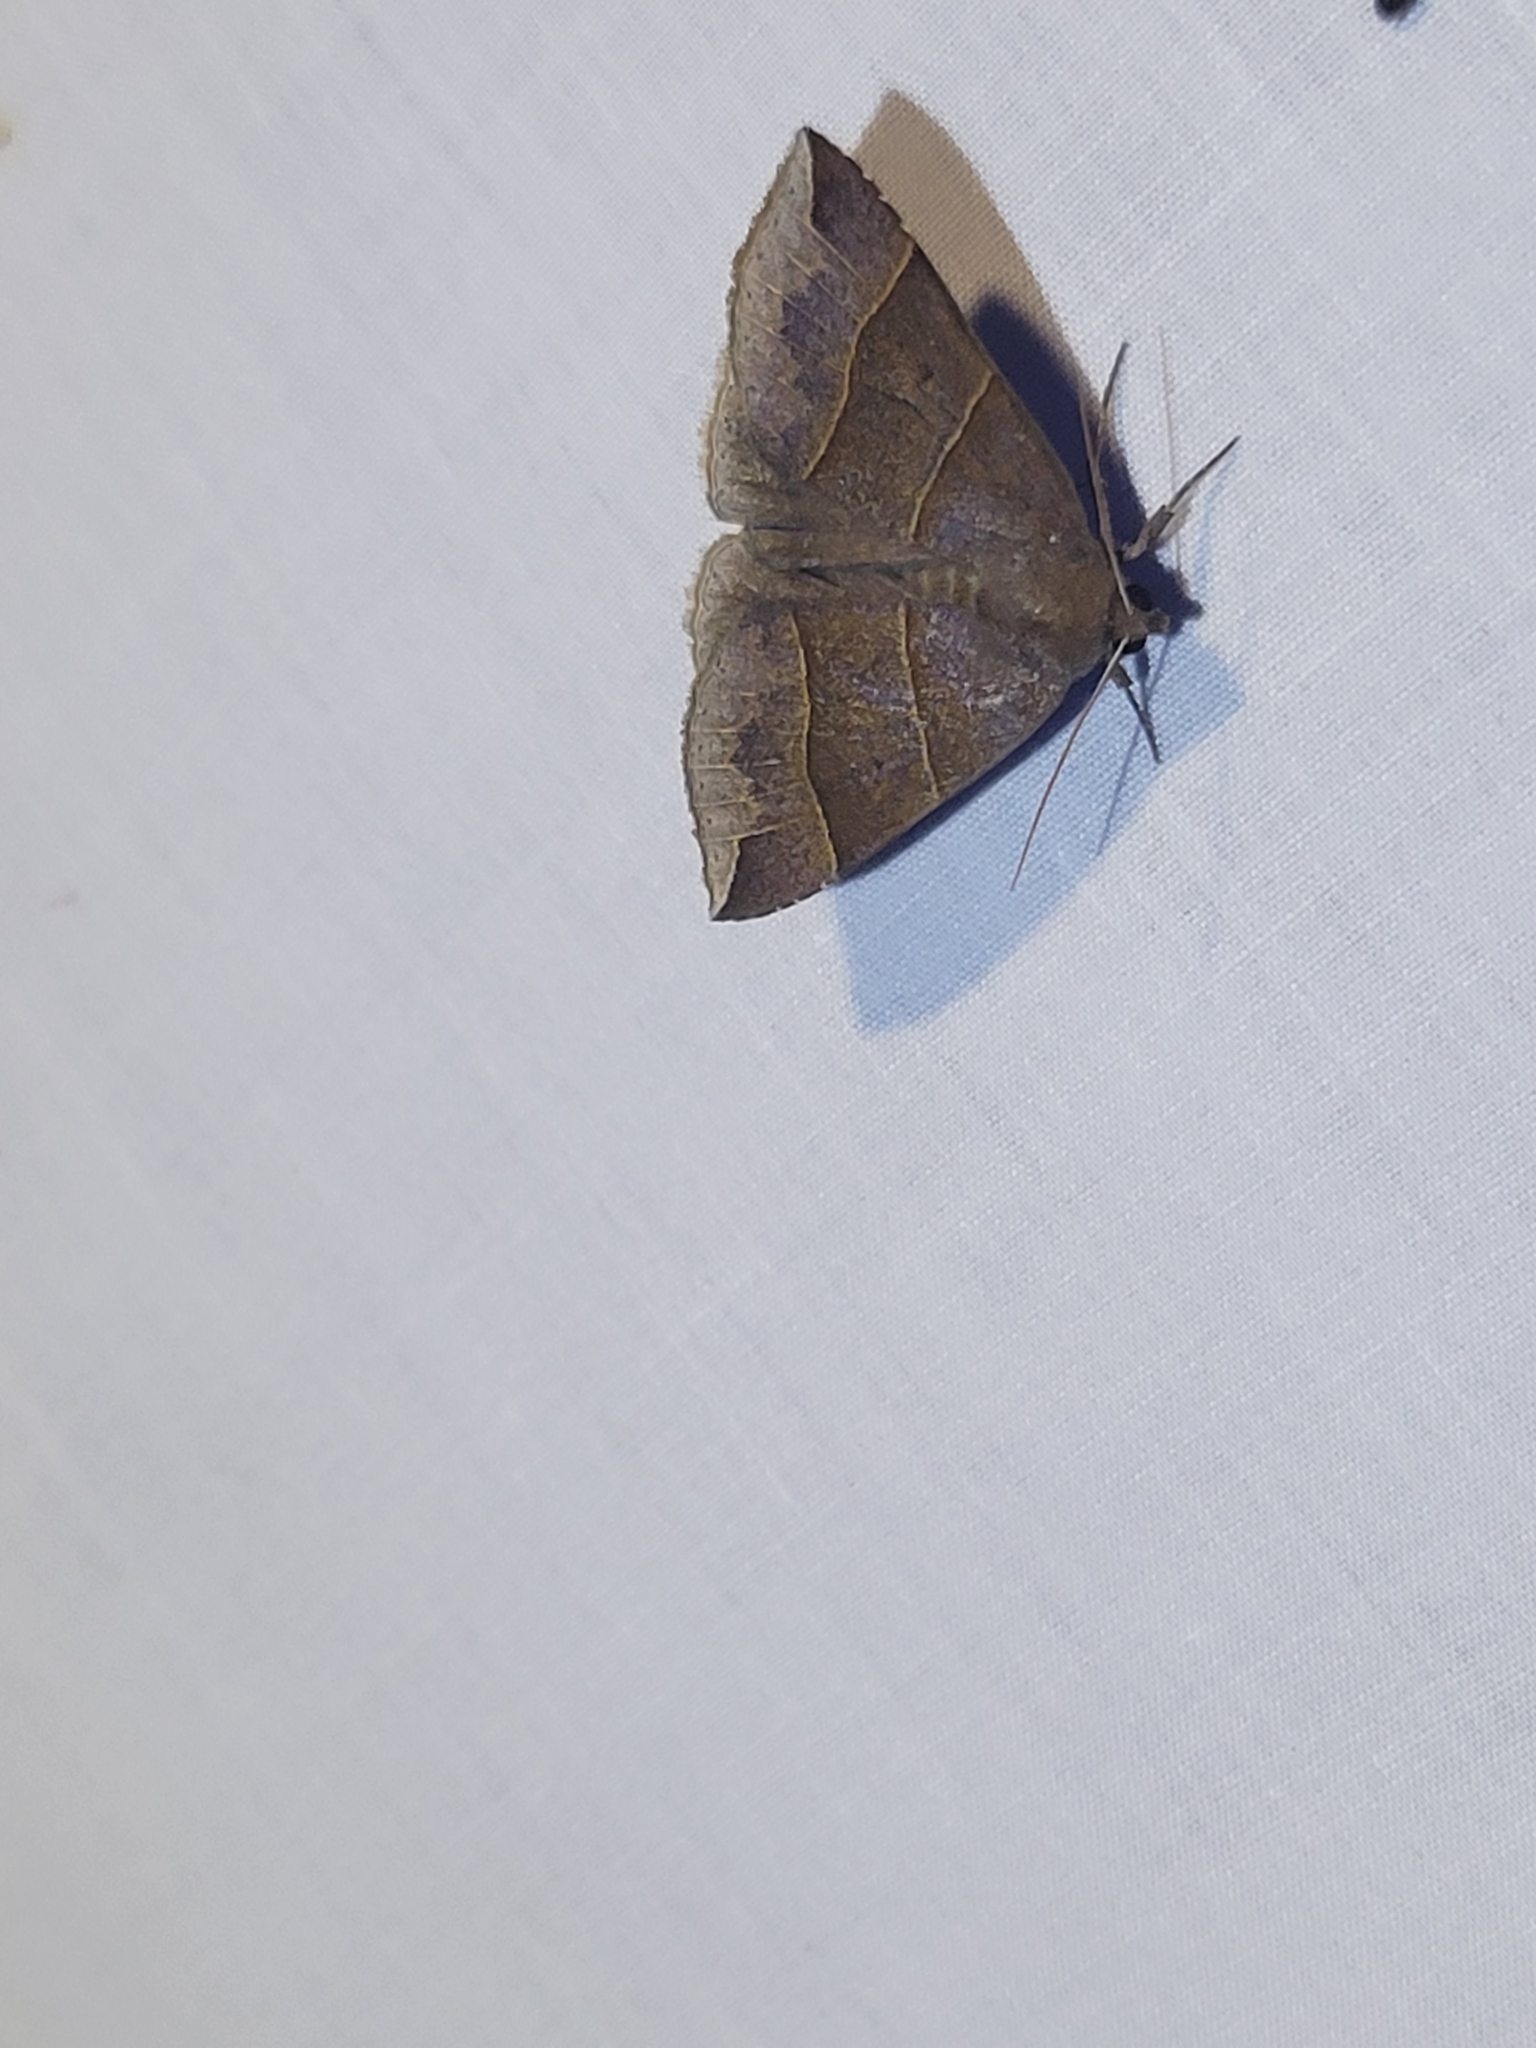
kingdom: Animalia
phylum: Arthropoda
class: Insecta
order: Lepidoptera
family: Erebidae
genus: Parallelia
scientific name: Parallelia bistriaris
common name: Maple looper moth
